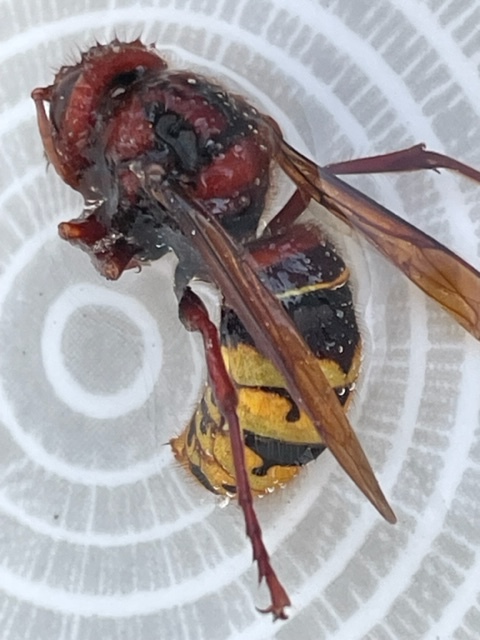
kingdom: Animalia
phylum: Arthropoda
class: Insecta
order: Hymenoptera
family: Vespidae
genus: Vespa
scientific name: Vespa crabro
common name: Hornet
